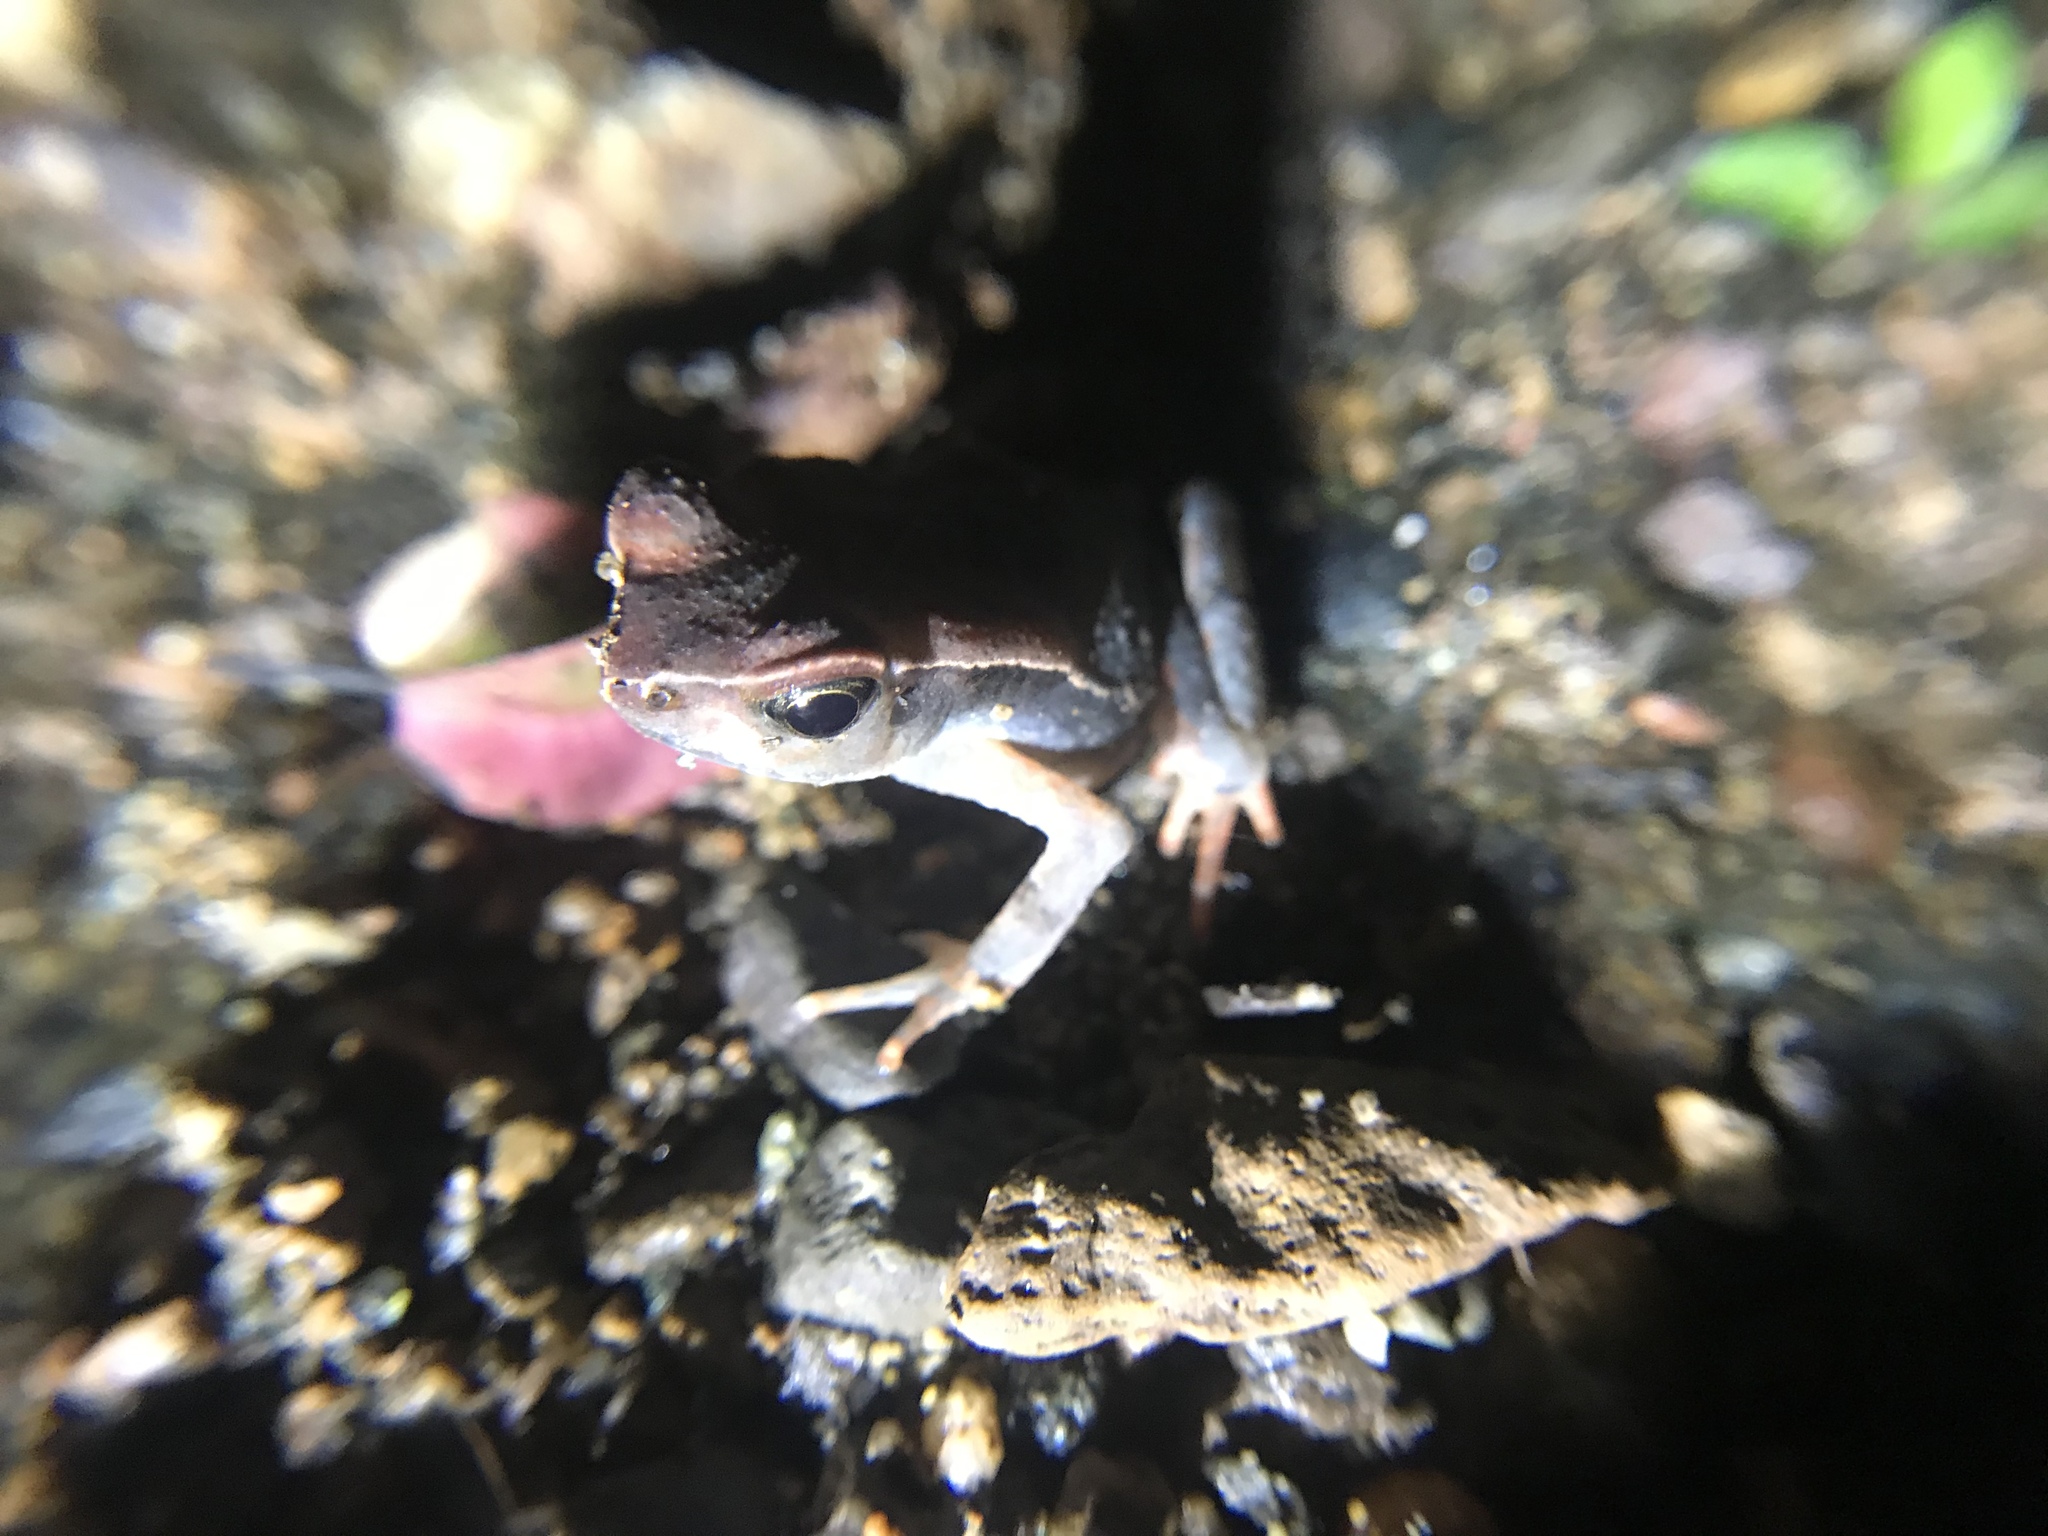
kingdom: Animalia
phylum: Chordata
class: Amphibia
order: Anura
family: Bufonidae
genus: Rhaebo
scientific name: Rhaebo haematiticus
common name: Truando toad
